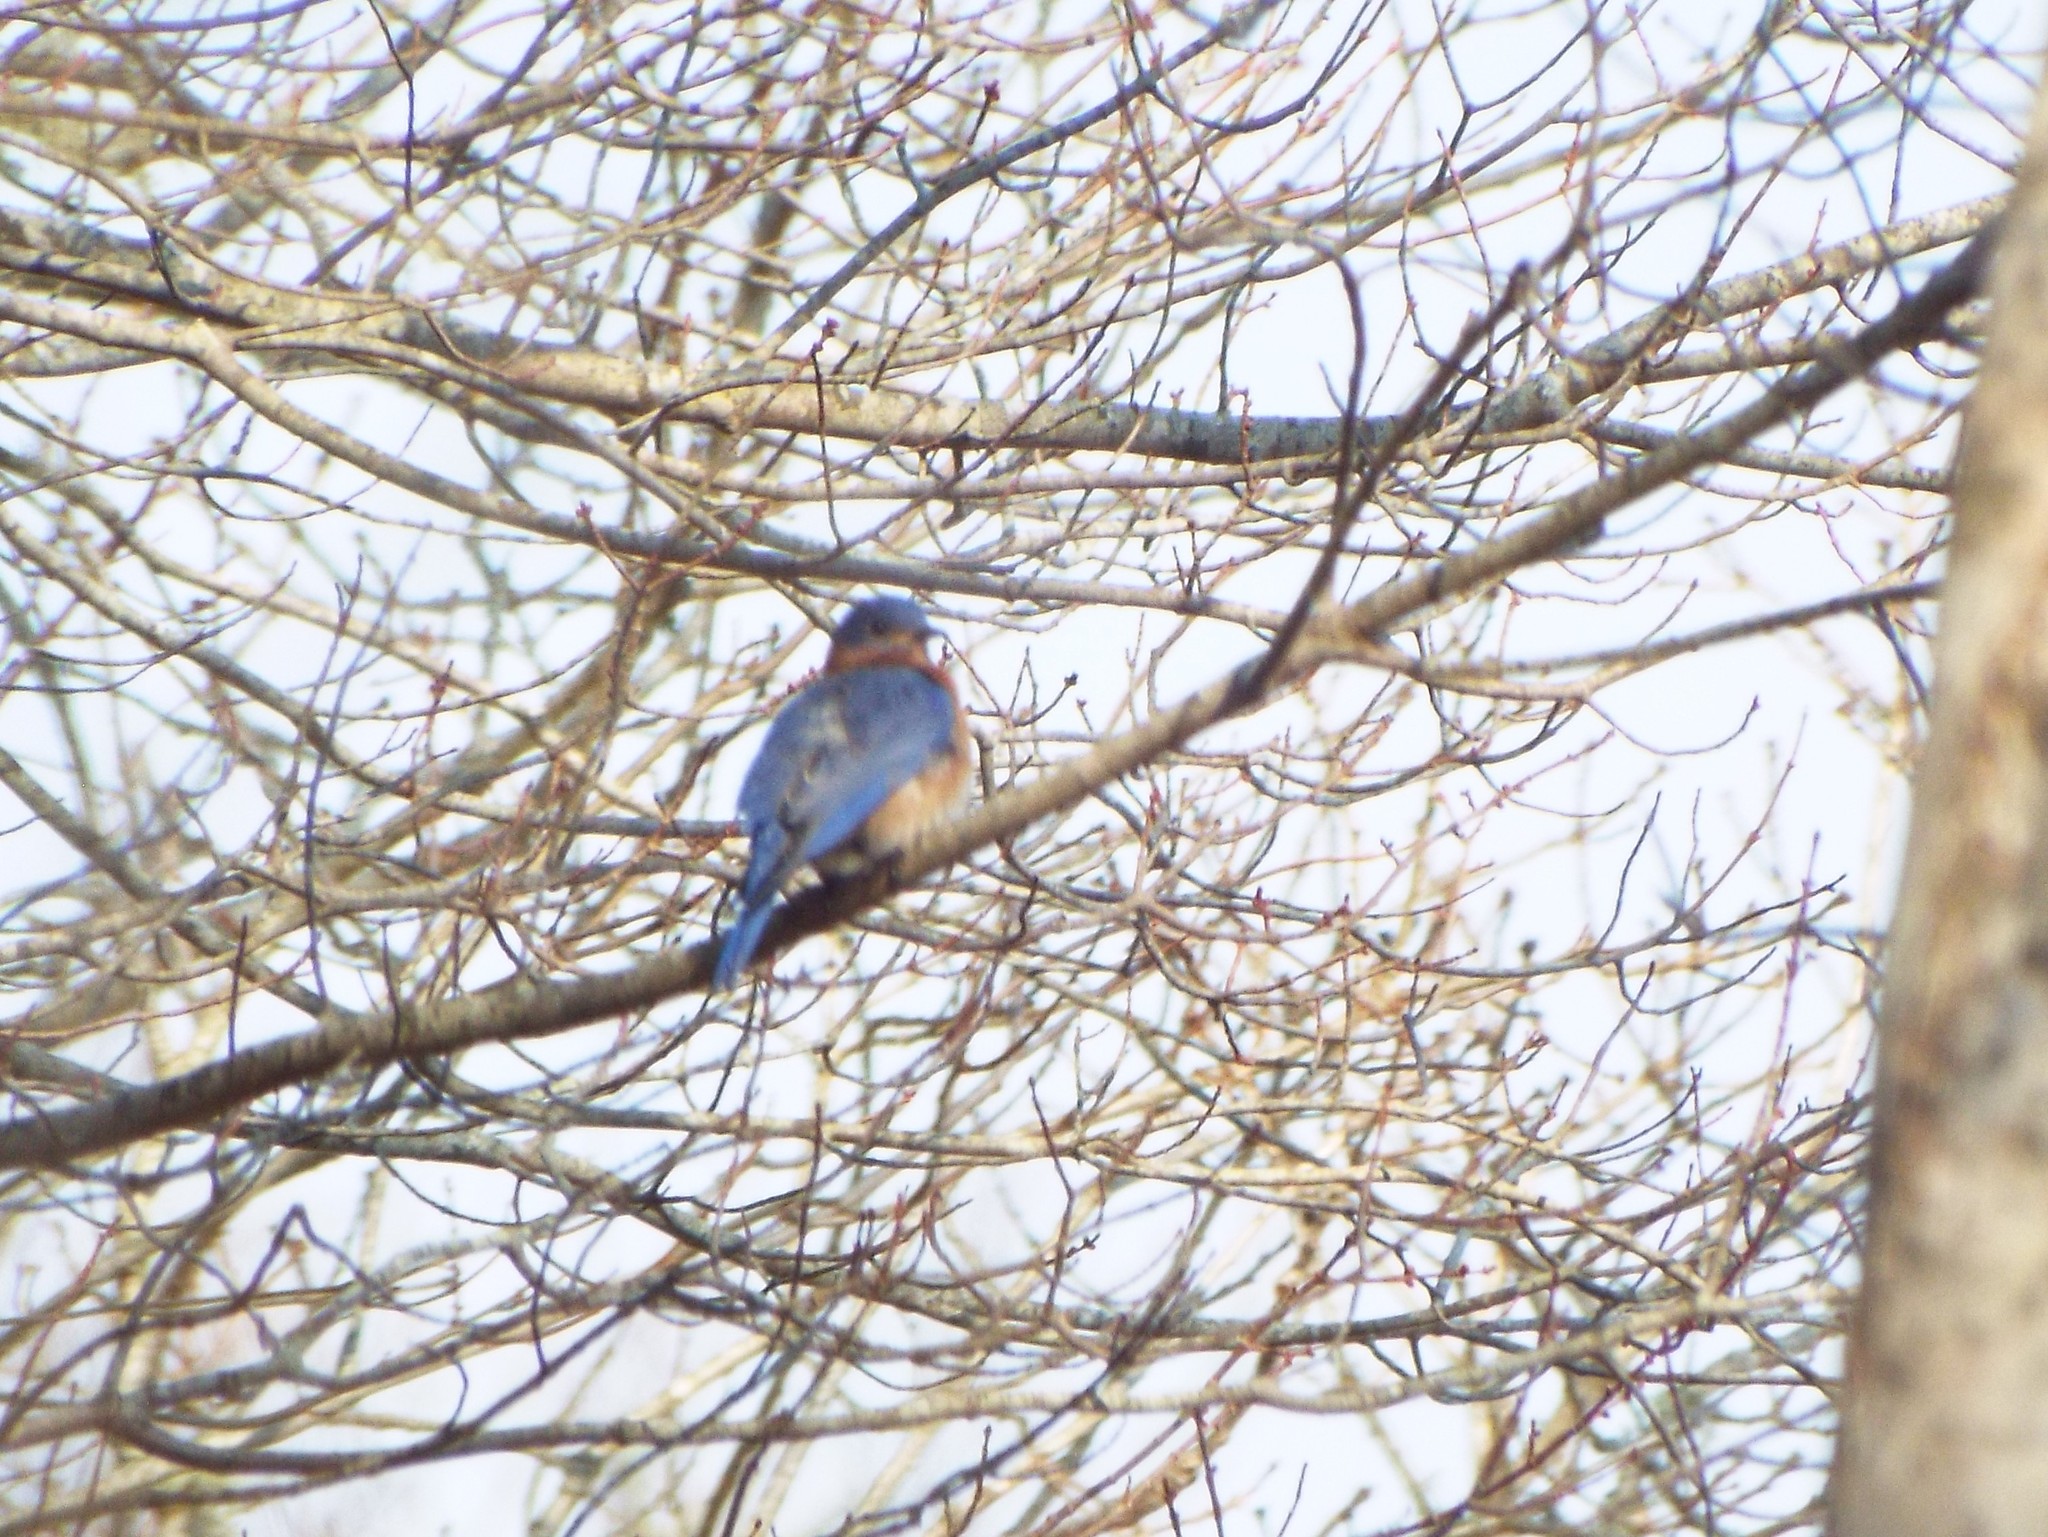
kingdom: Animalia
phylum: Chordata
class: Aves
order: Passeriformes
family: Turdidae
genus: Sialia
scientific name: Sialia sialis
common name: Eastern bluebird
